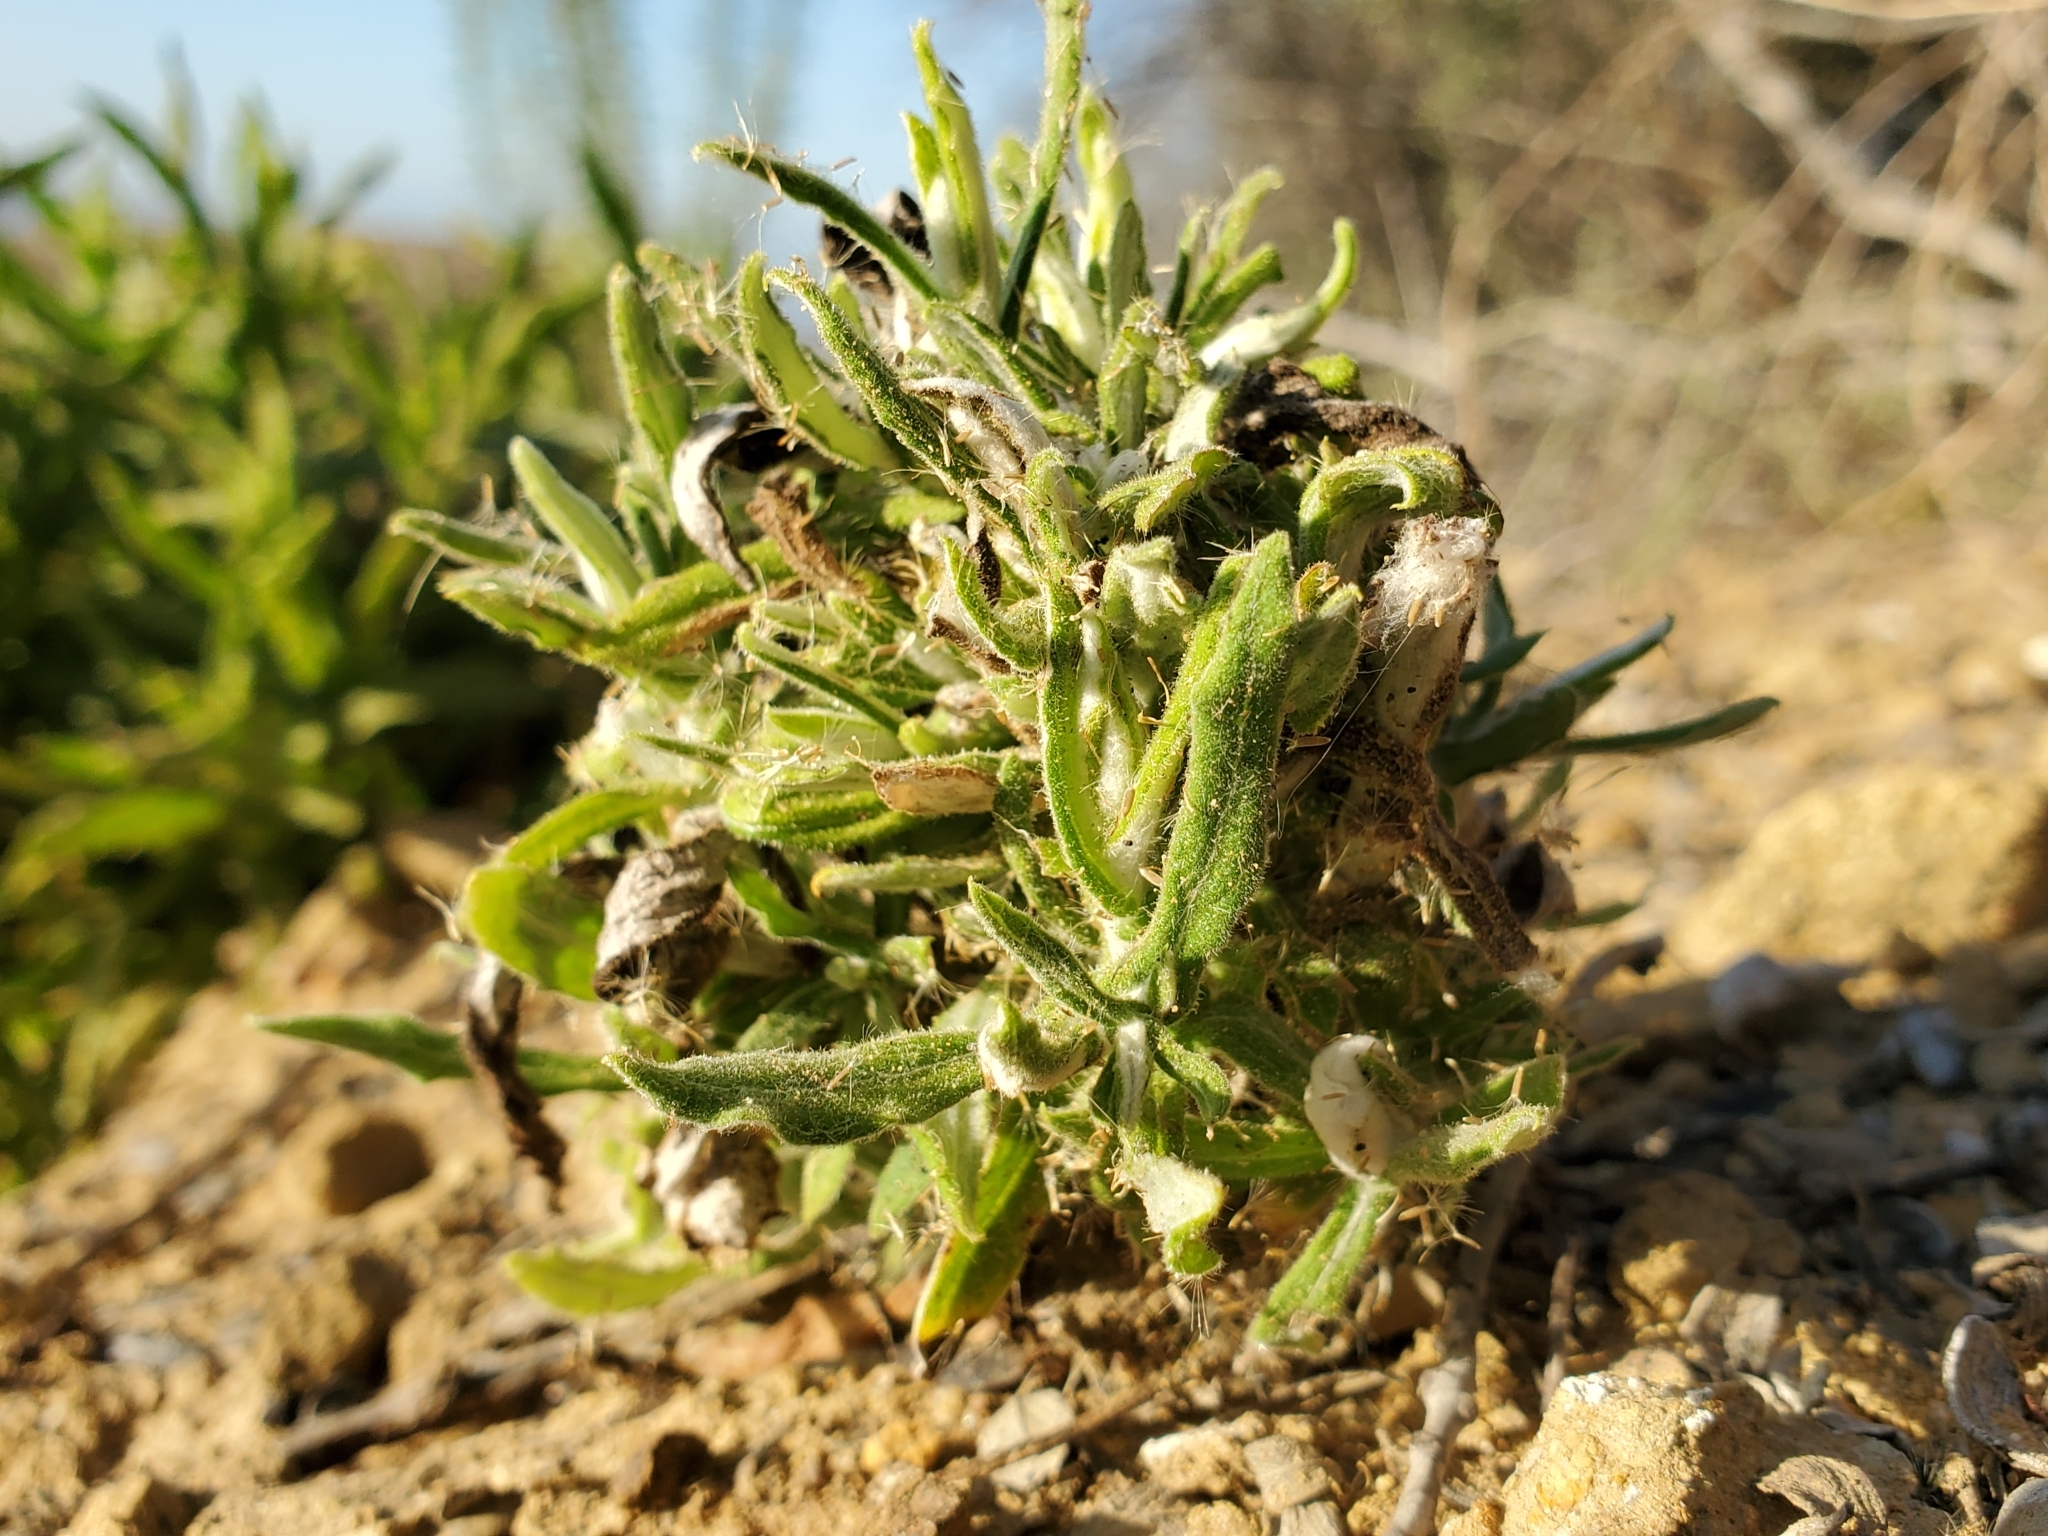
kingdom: Plantae
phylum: Tracheophyta
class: Magnoliopsida
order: Asterales
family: Asteraceae
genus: Pseudognaphalium
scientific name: Pseudognaphalium biolettii
